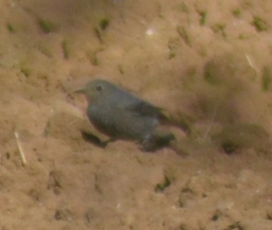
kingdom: Animalia
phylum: Chordata
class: Aves
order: Passeriformes
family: Muscicapidae
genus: Phoenicurus
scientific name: Phoenicurus ochruros
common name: Black redstart
